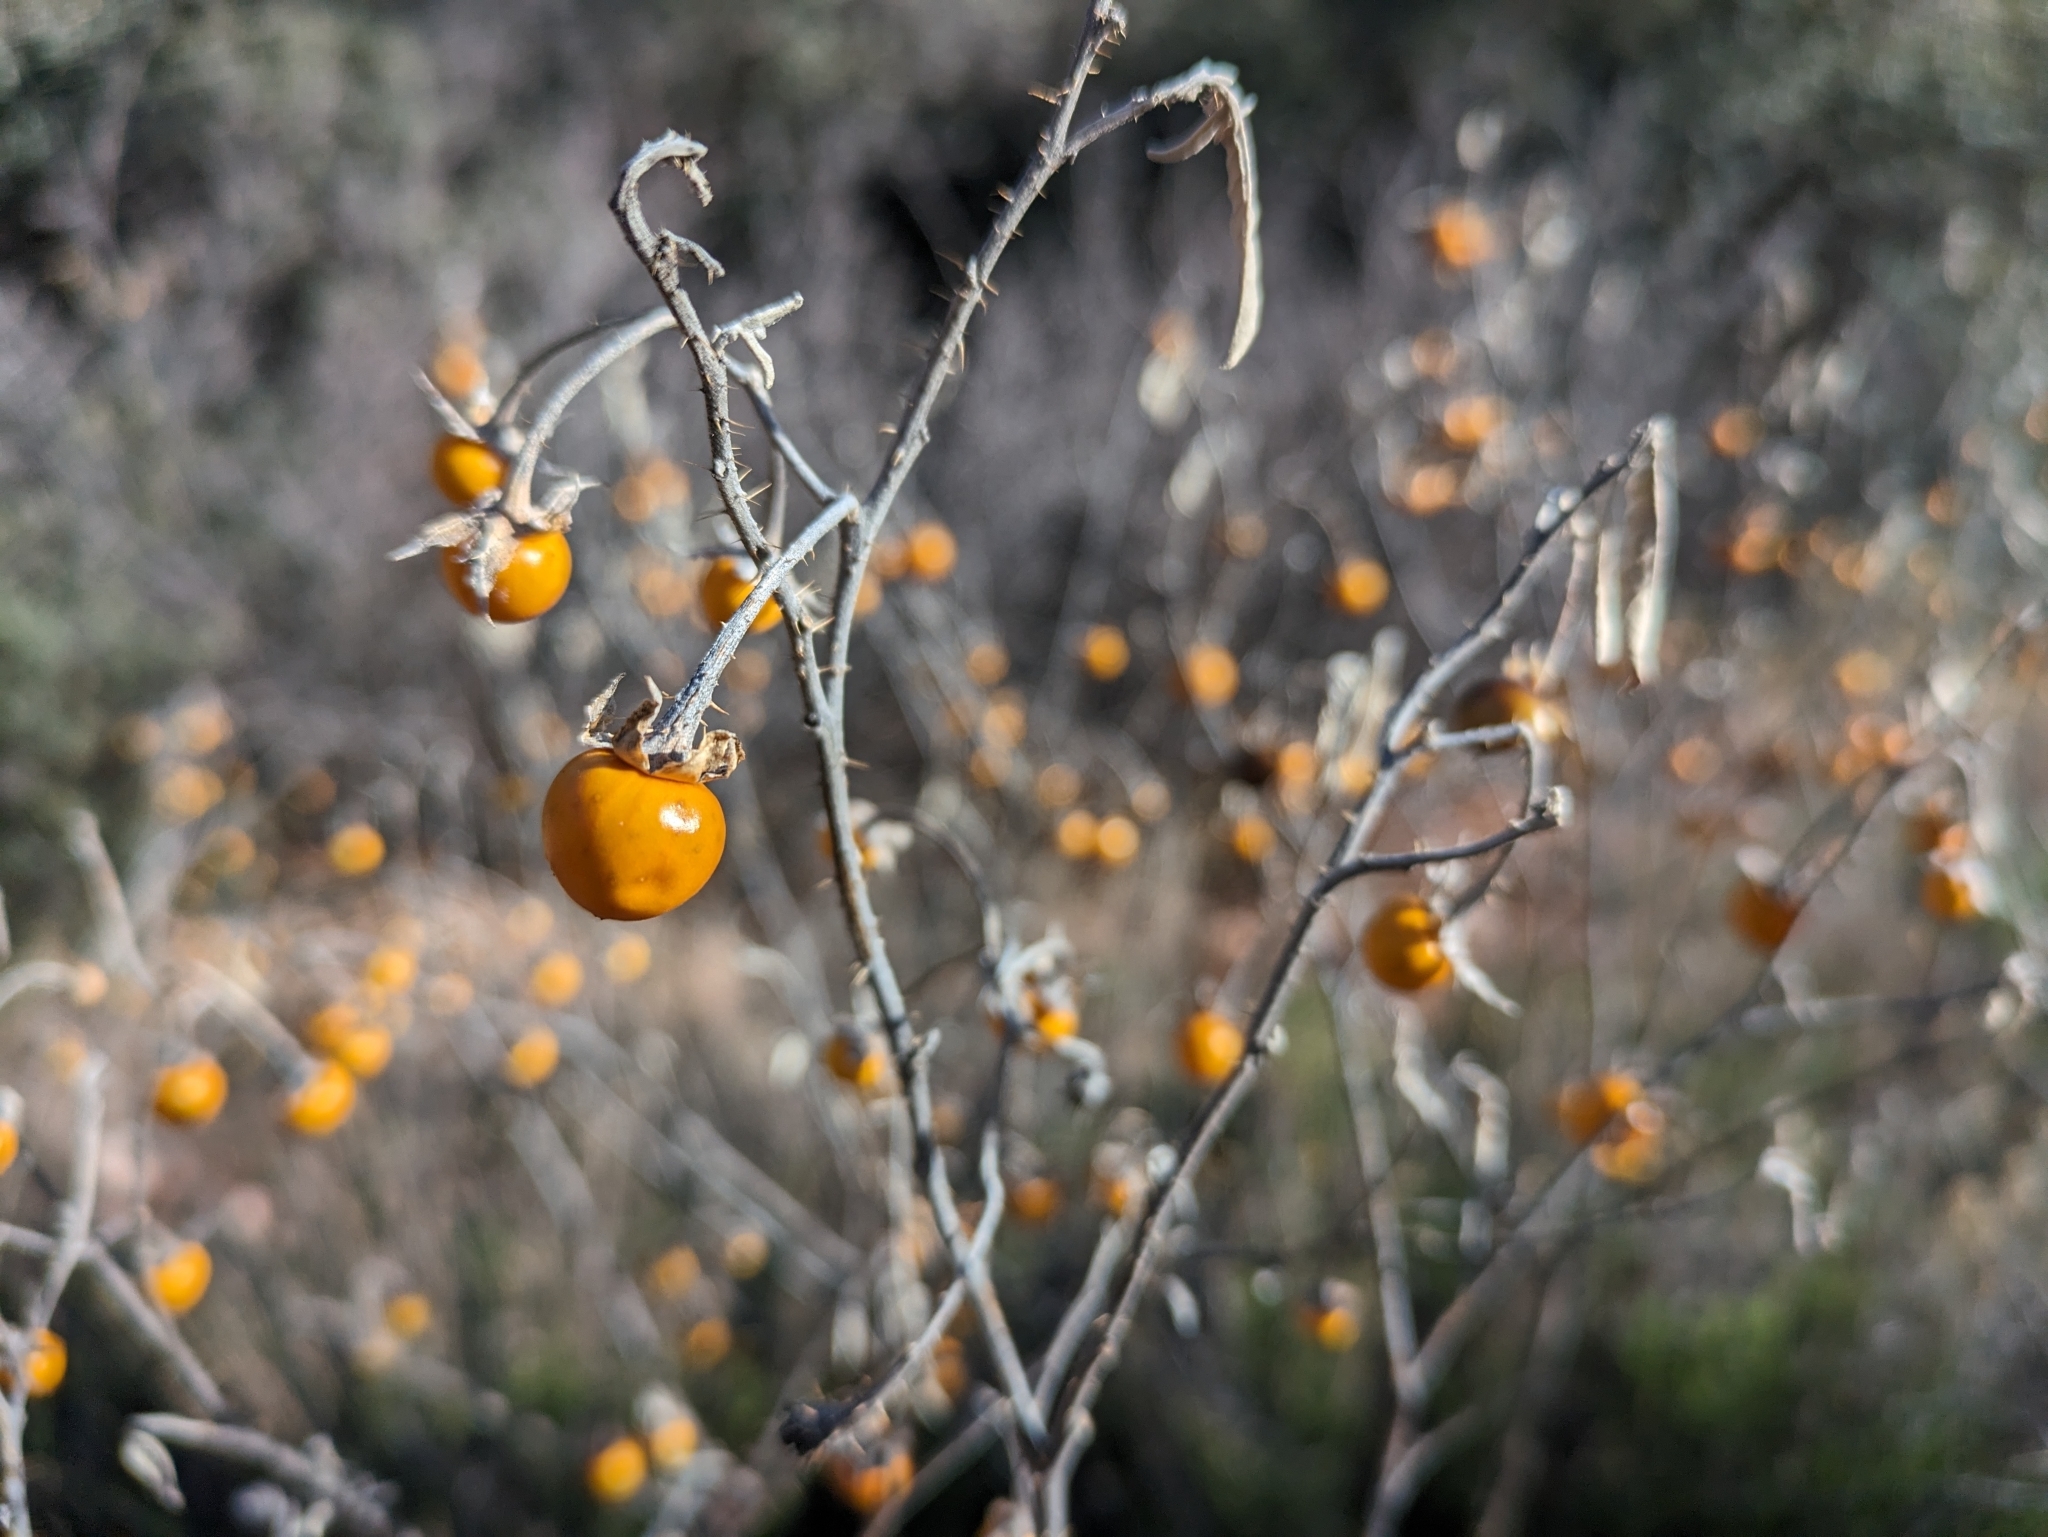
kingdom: Plantae
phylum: Tracheophyta
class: Magnoliopsida
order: Solanales
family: Solanaceae
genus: Solanum
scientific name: Solanum elaeagnifolium
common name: Silverleaf nightshade
